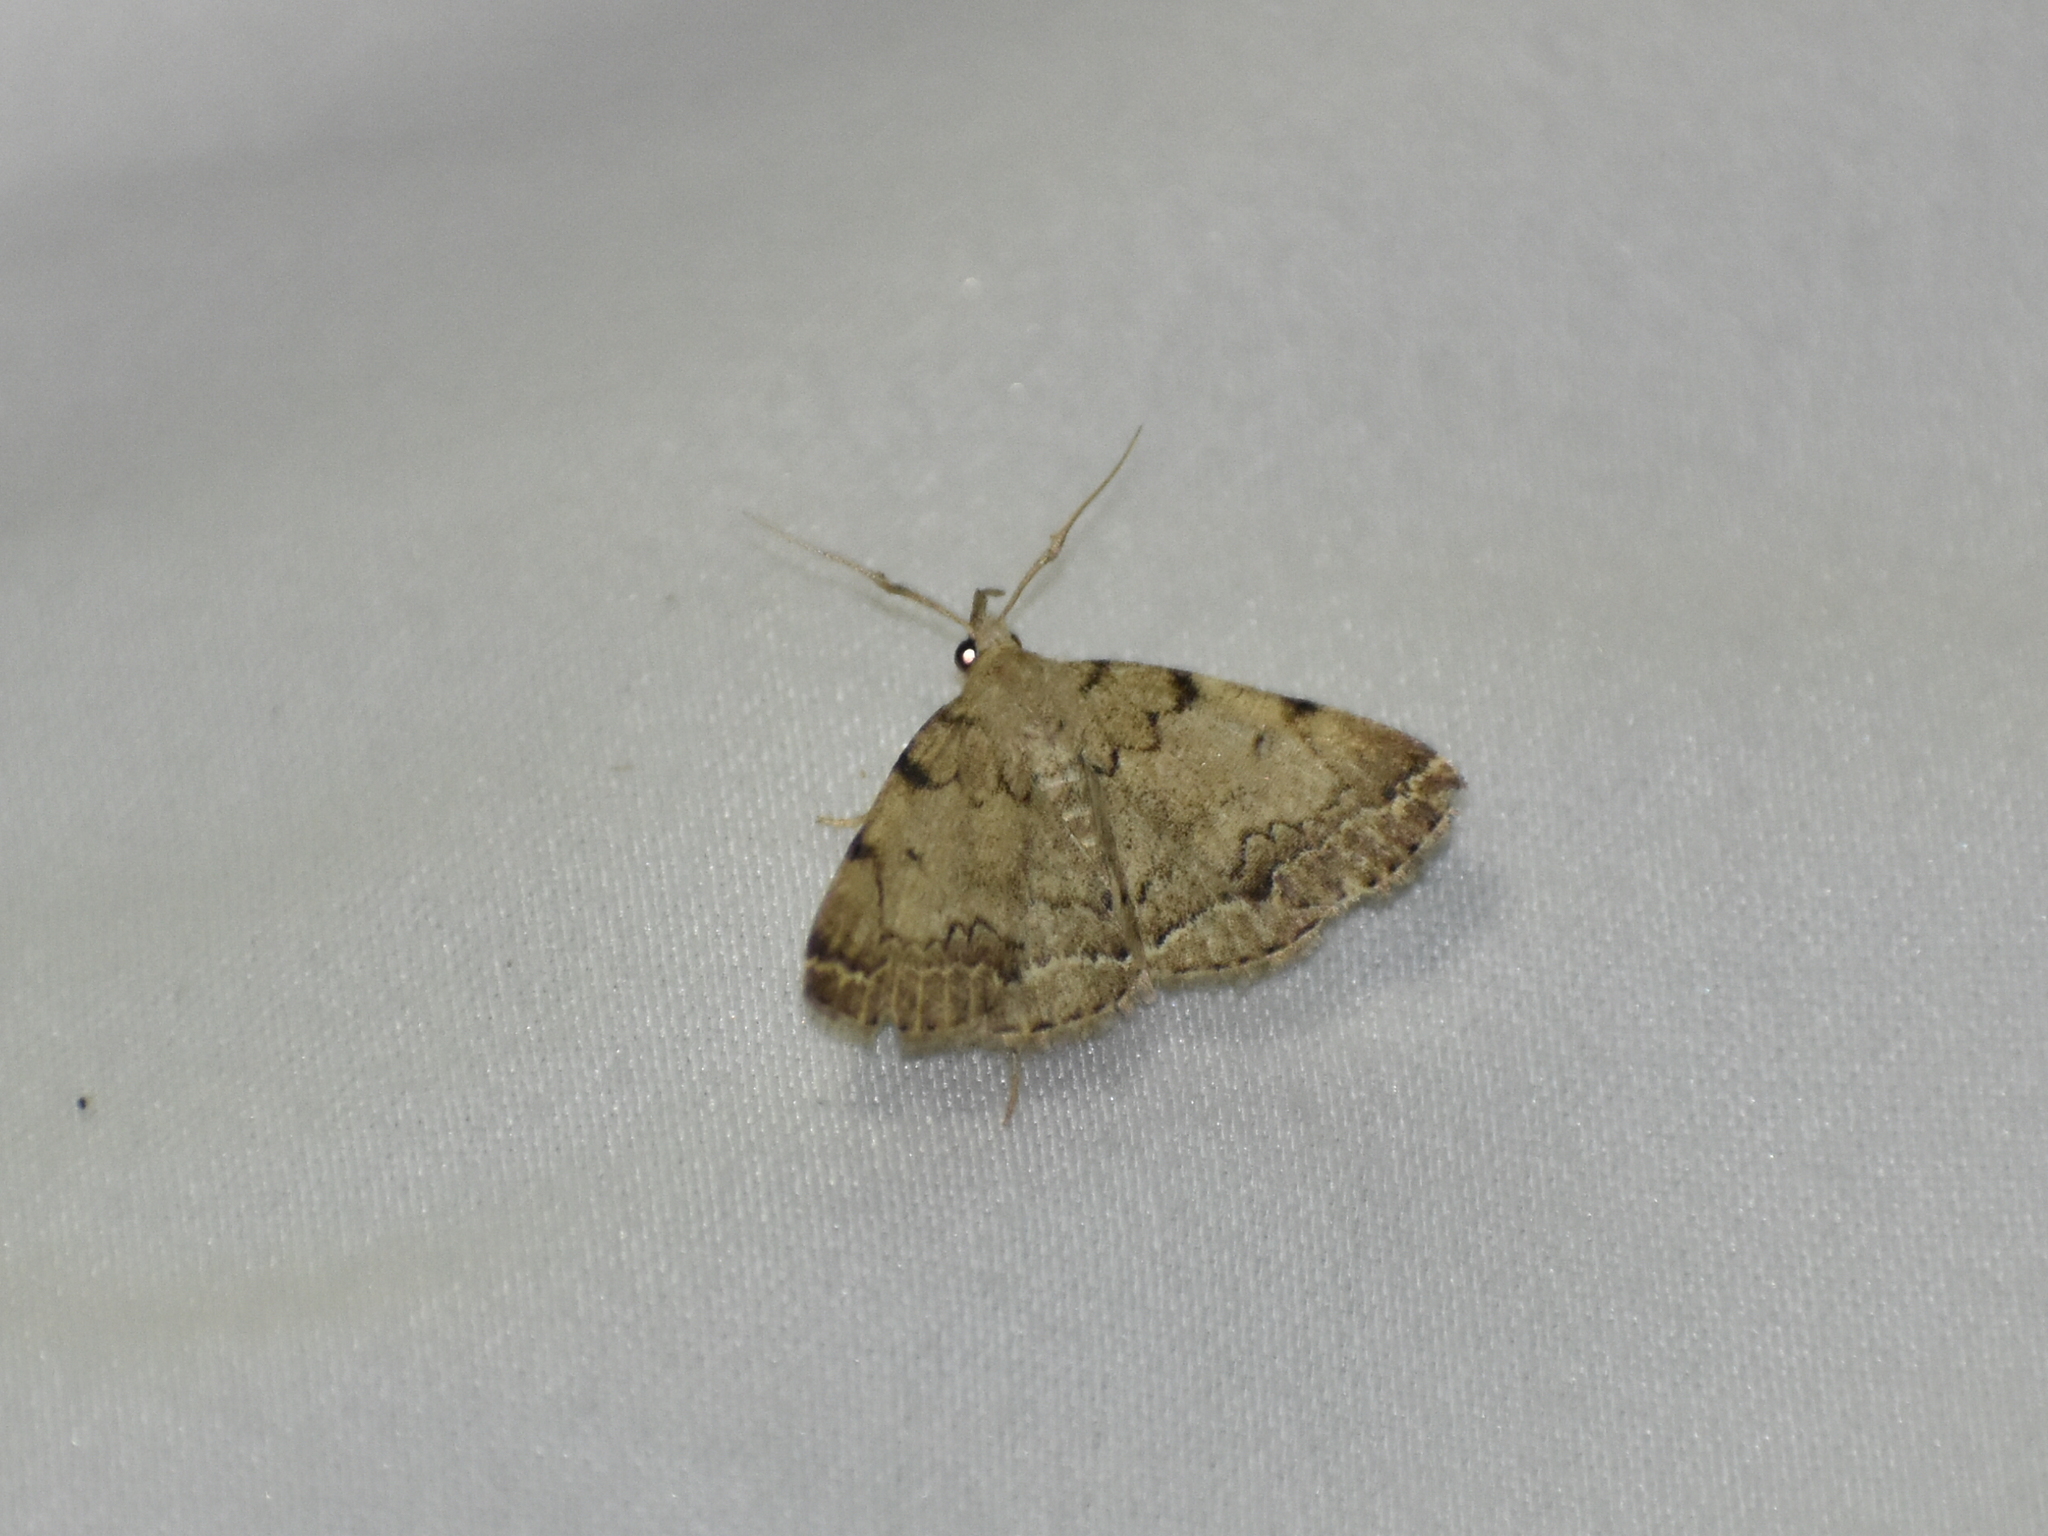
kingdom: Animalia
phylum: Arthropoda
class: Insecta
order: Lepidoptera
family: Erebidae
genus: Zanclognatha
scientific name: Zanclognatha theralis
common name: Flagged fan-foot
